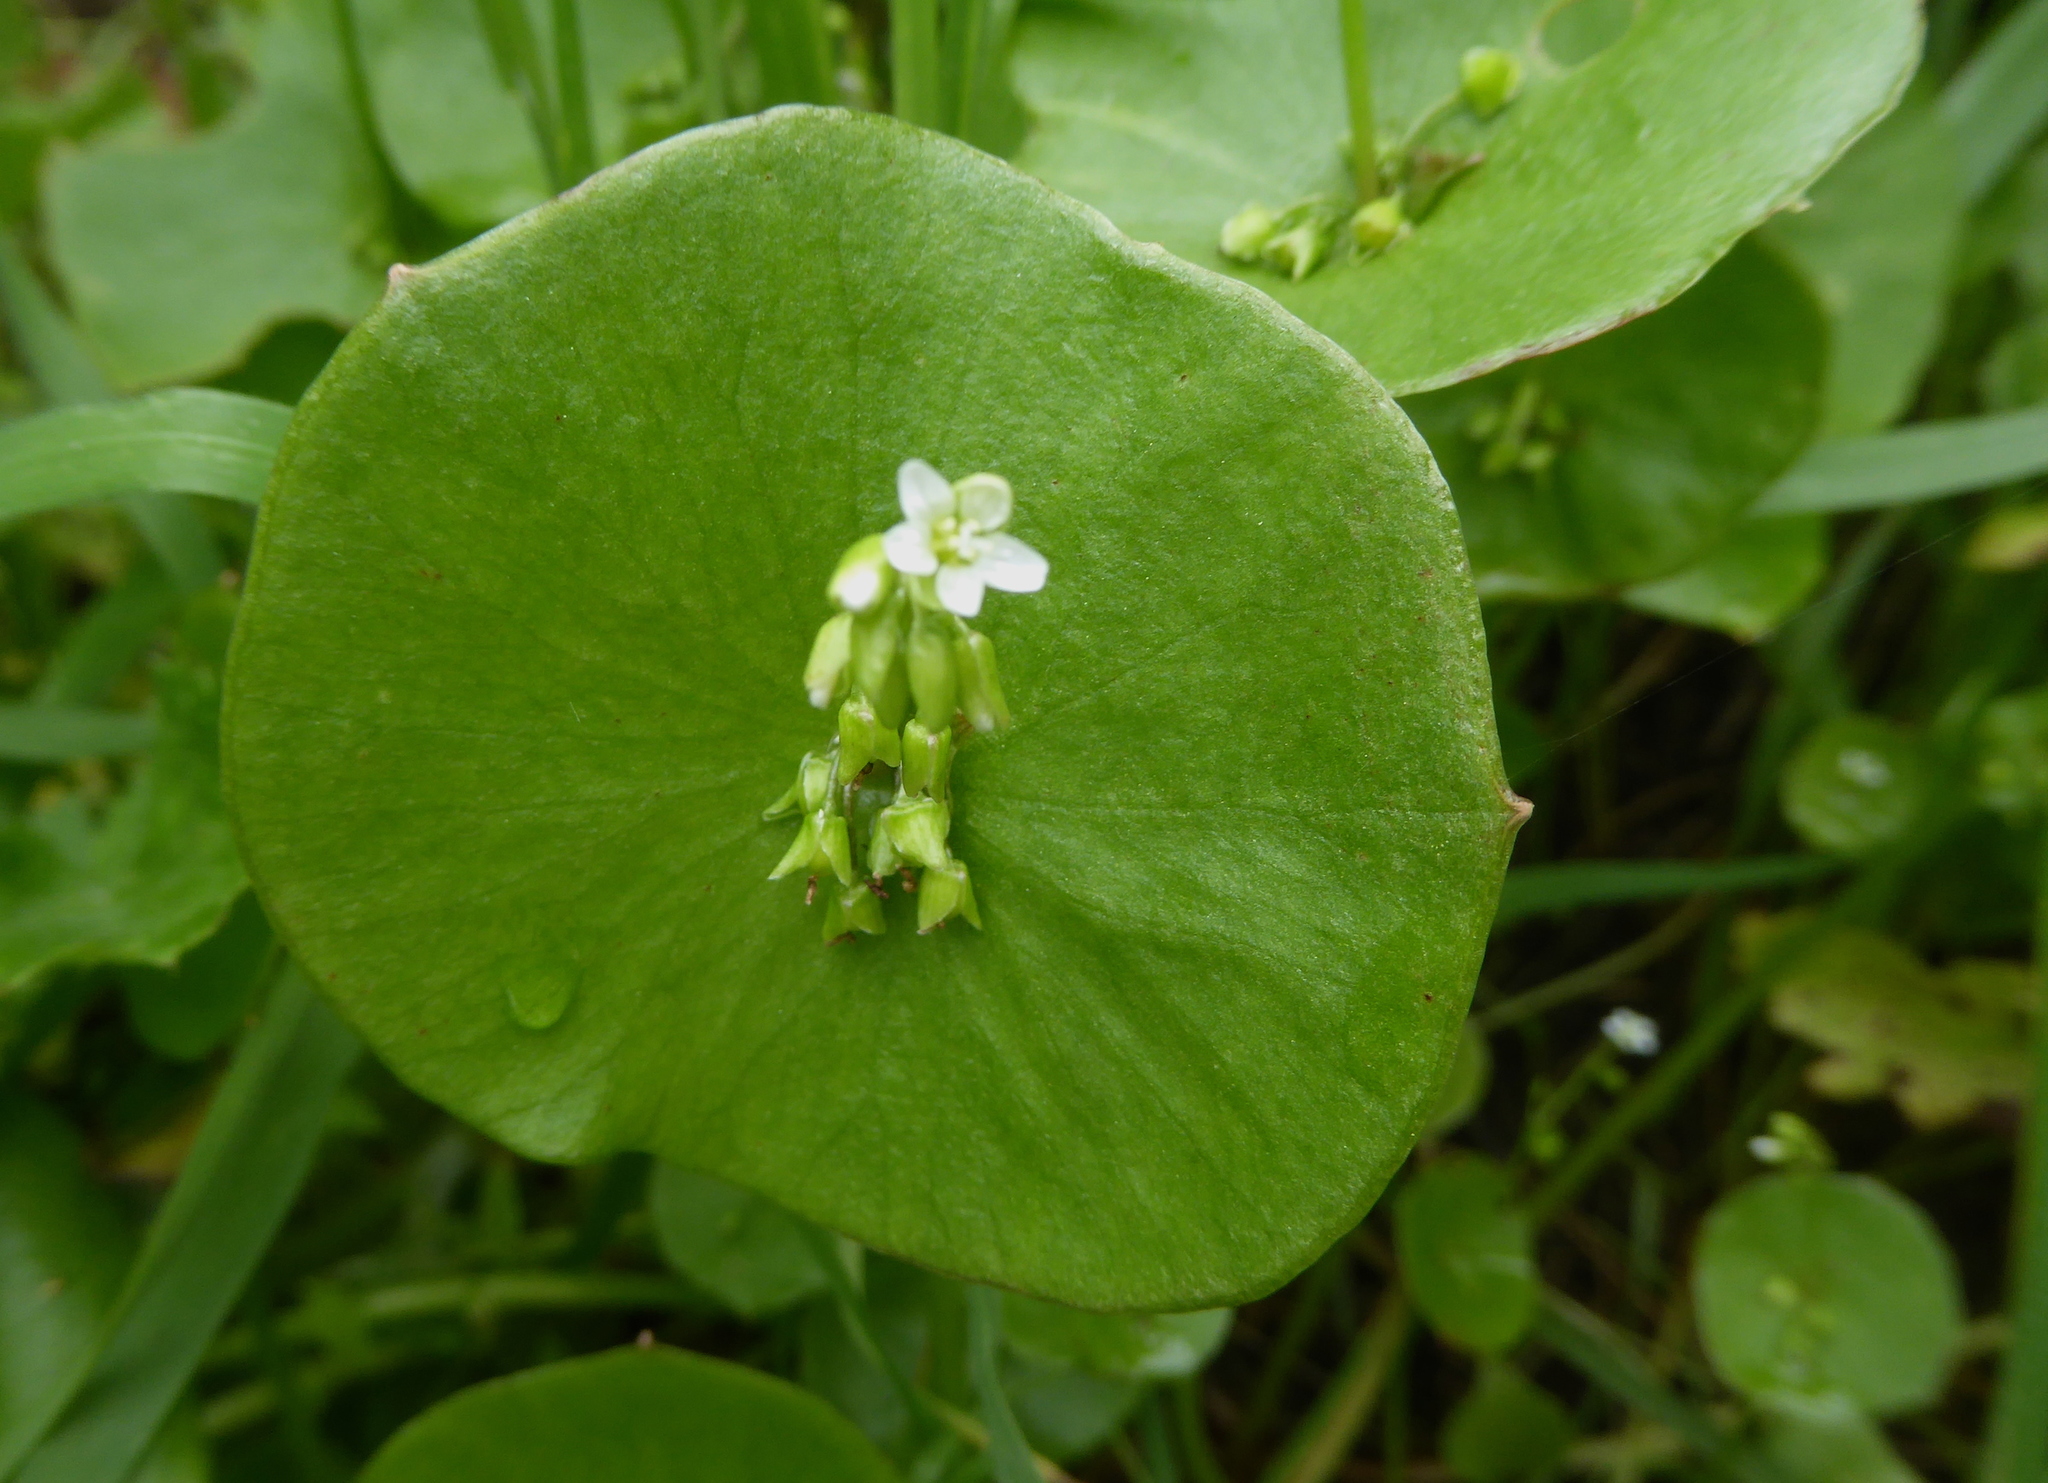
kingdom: Plantae
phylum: Tracheophyta
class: Magnoliopsida
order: Caryophyllales
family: Montiaceae
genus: Claytonia
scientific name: Claytonia perfoliata
